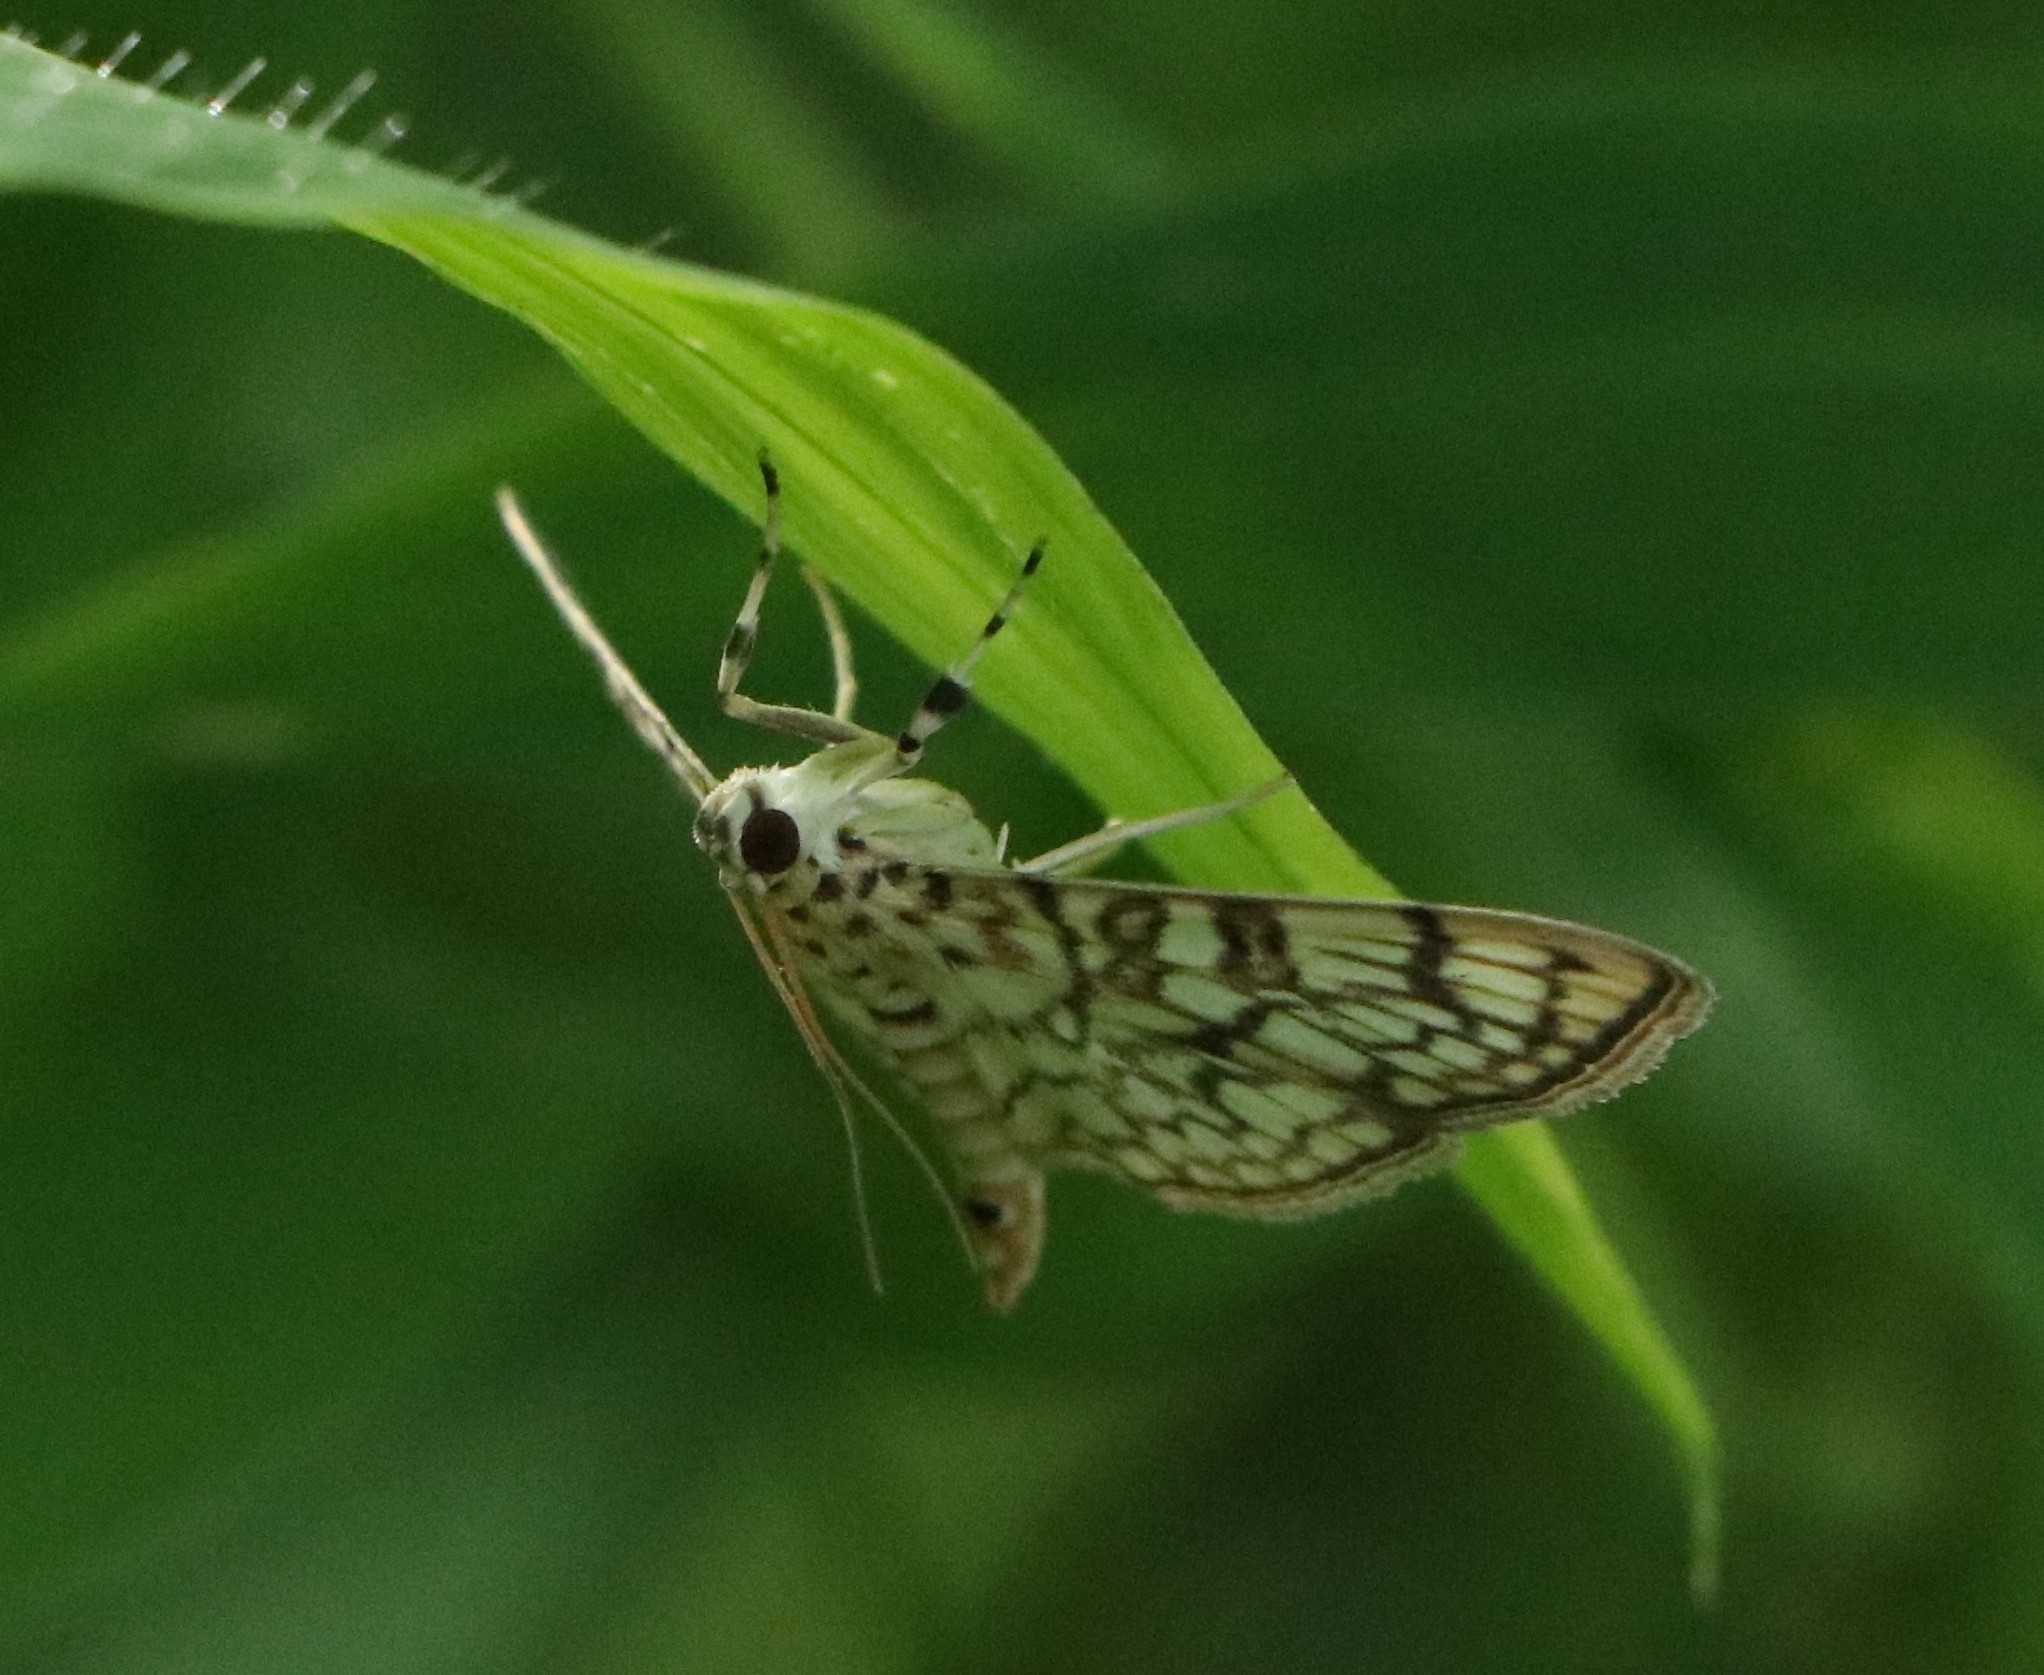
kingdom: Animalia
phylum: Arthropoda
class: Insecta
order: Lepidoptera
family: Crambidae
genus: Haritalodes
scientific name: Haritalodes derogata
